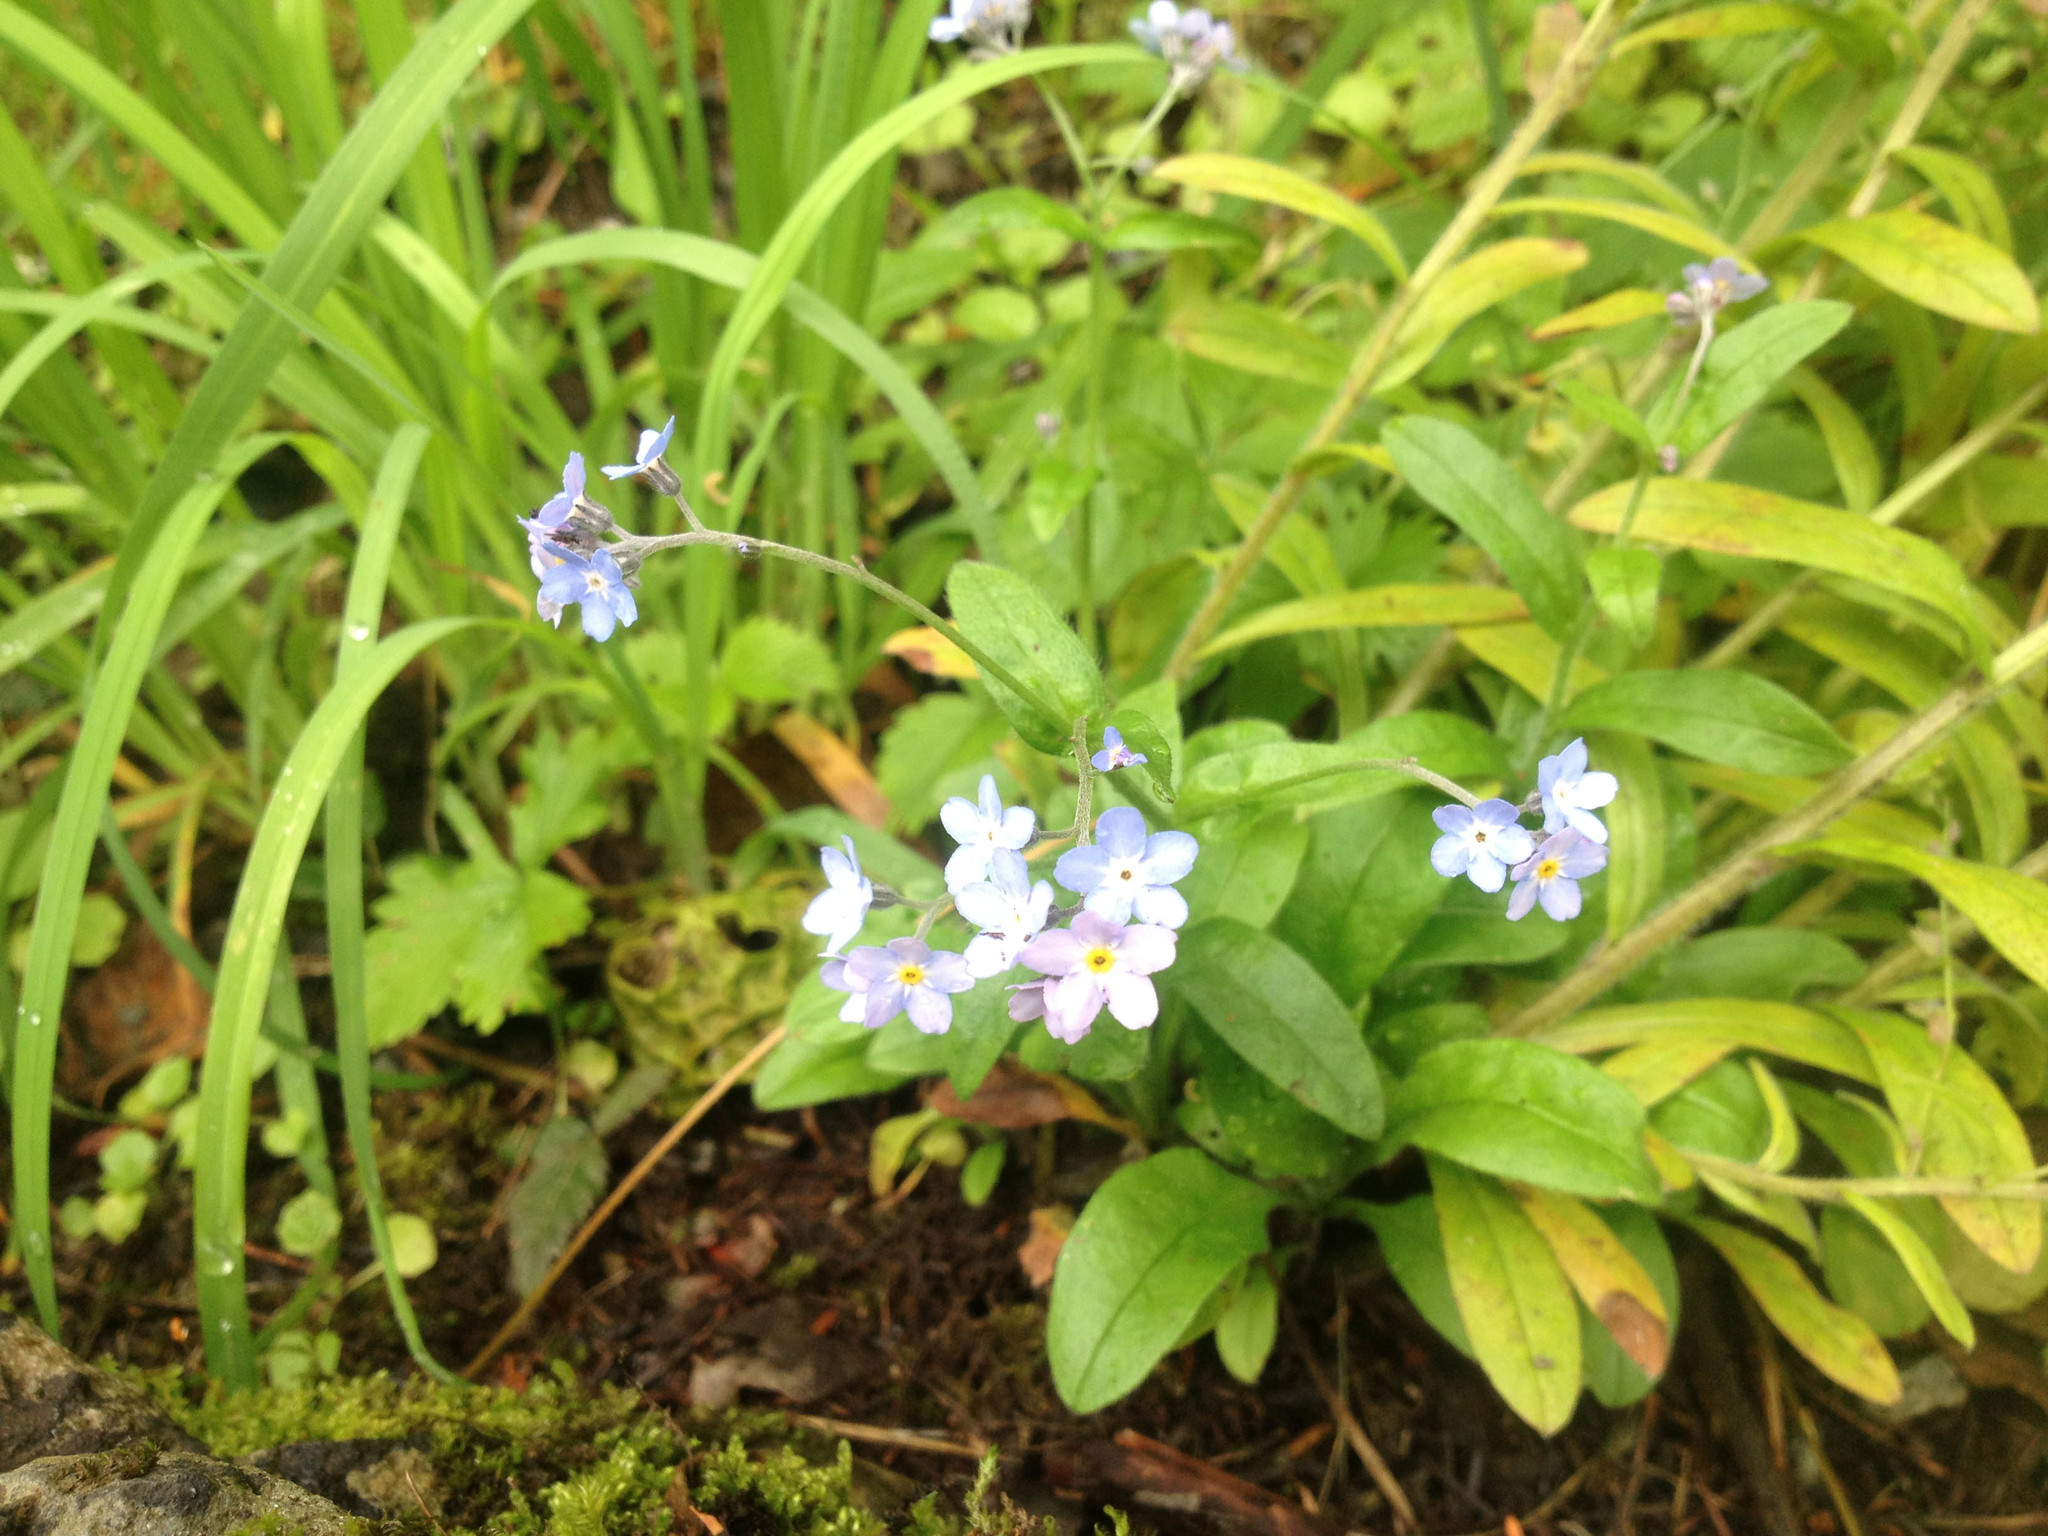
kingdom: Plantae
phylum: Tracheophyta
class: Magnoliopsida
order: Boraginales
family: Boraginaceae
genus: Myosotis
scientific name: Myosotis sylvatica
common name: Wood forget-me-not
